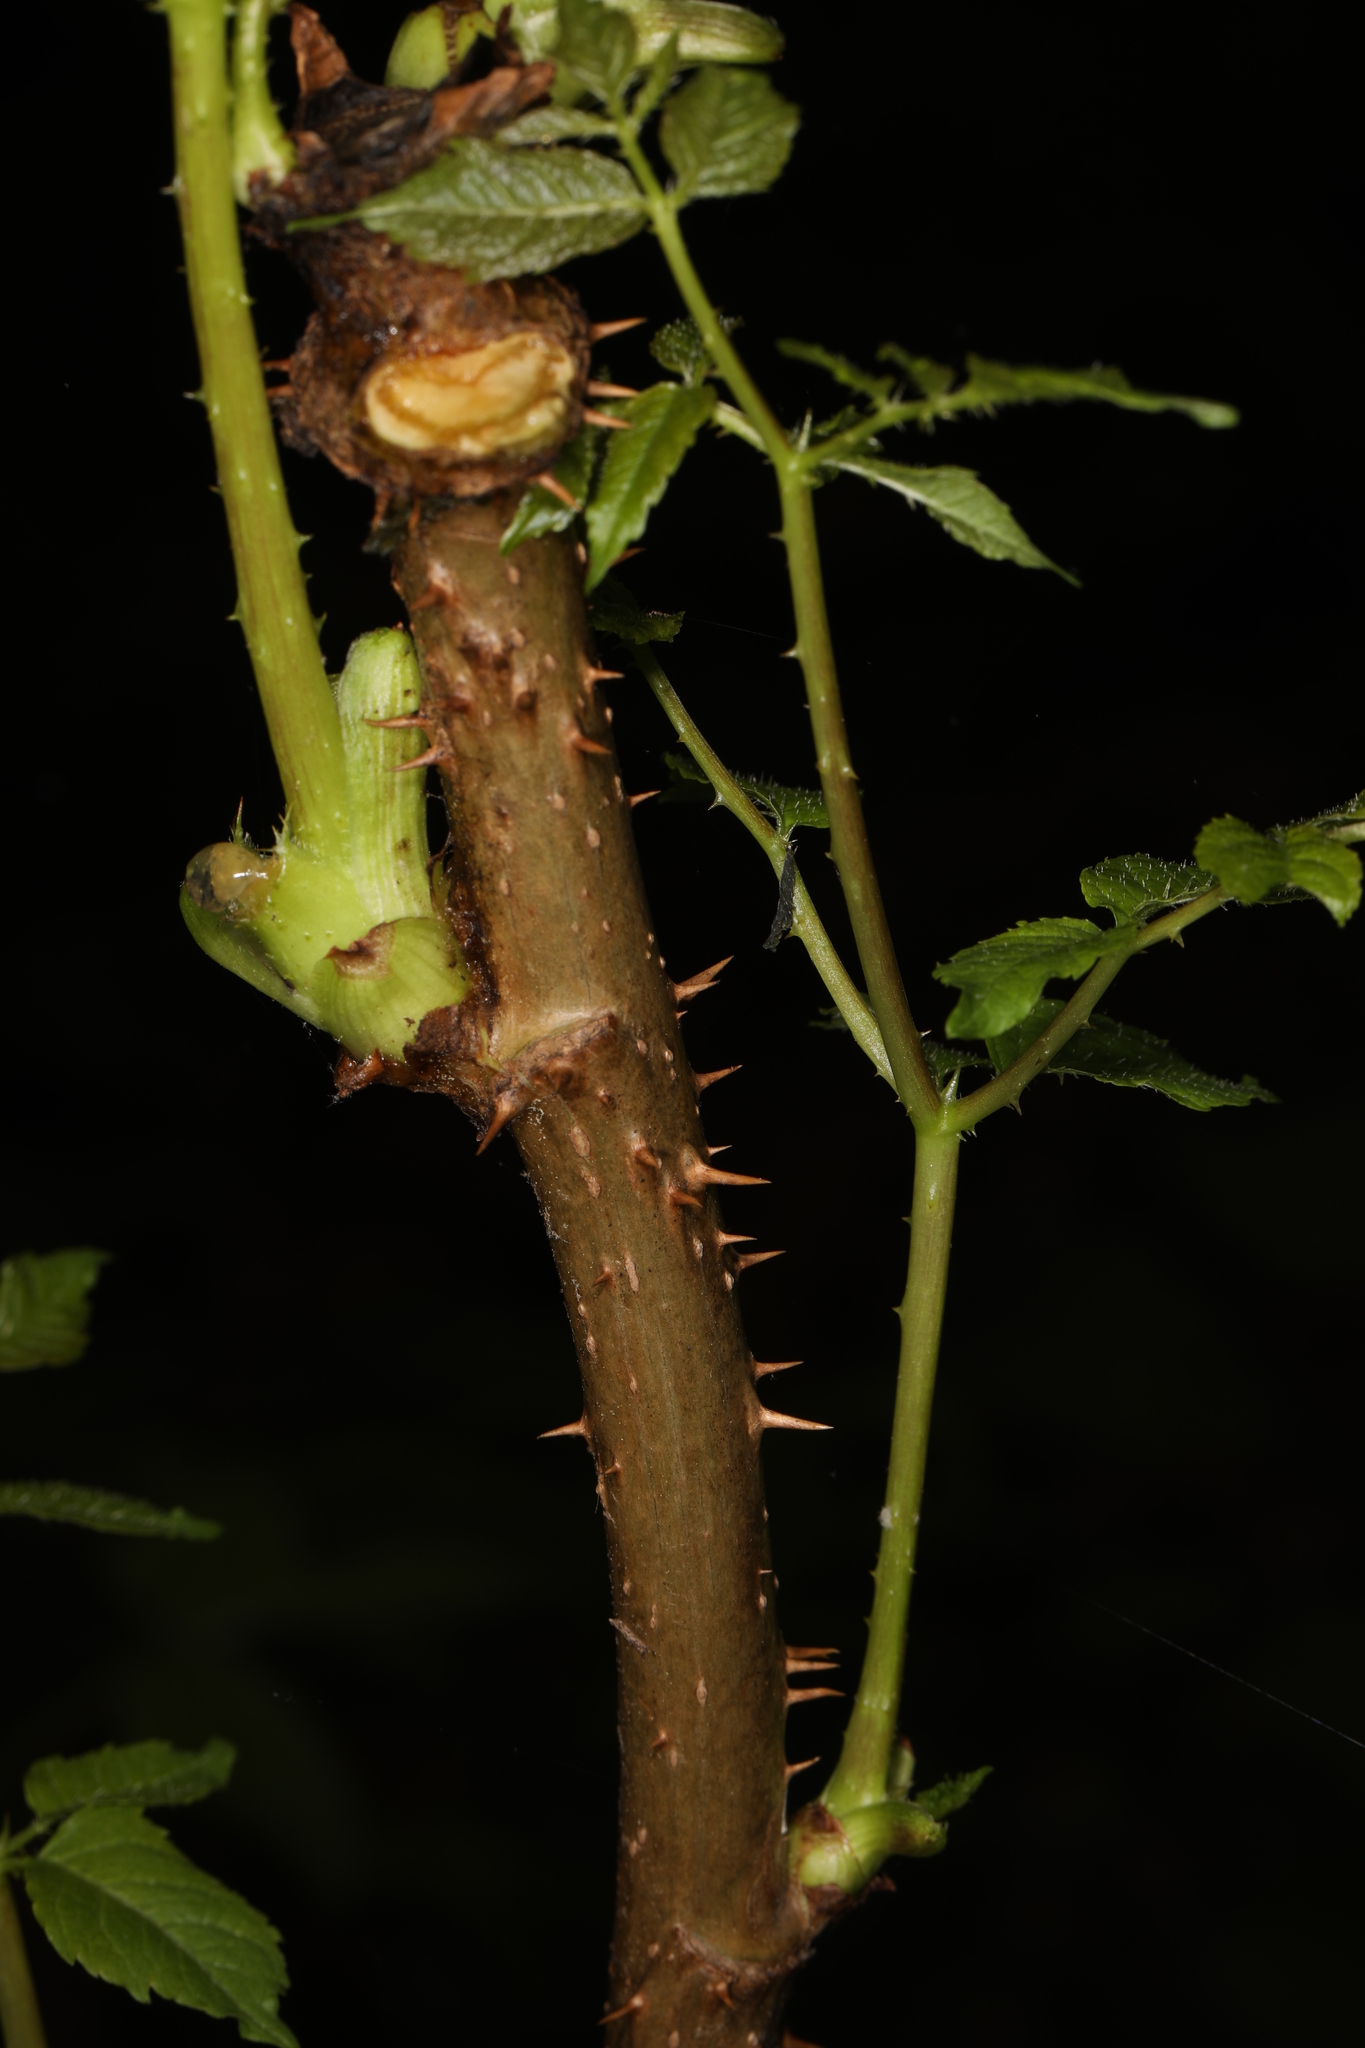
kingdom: Plantae
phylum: Tracheophyta
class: Magnoliopsida
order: Apiales
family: Araliaceae
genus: Aralia
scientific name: Aralia spinosa
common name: Hercules'-club
